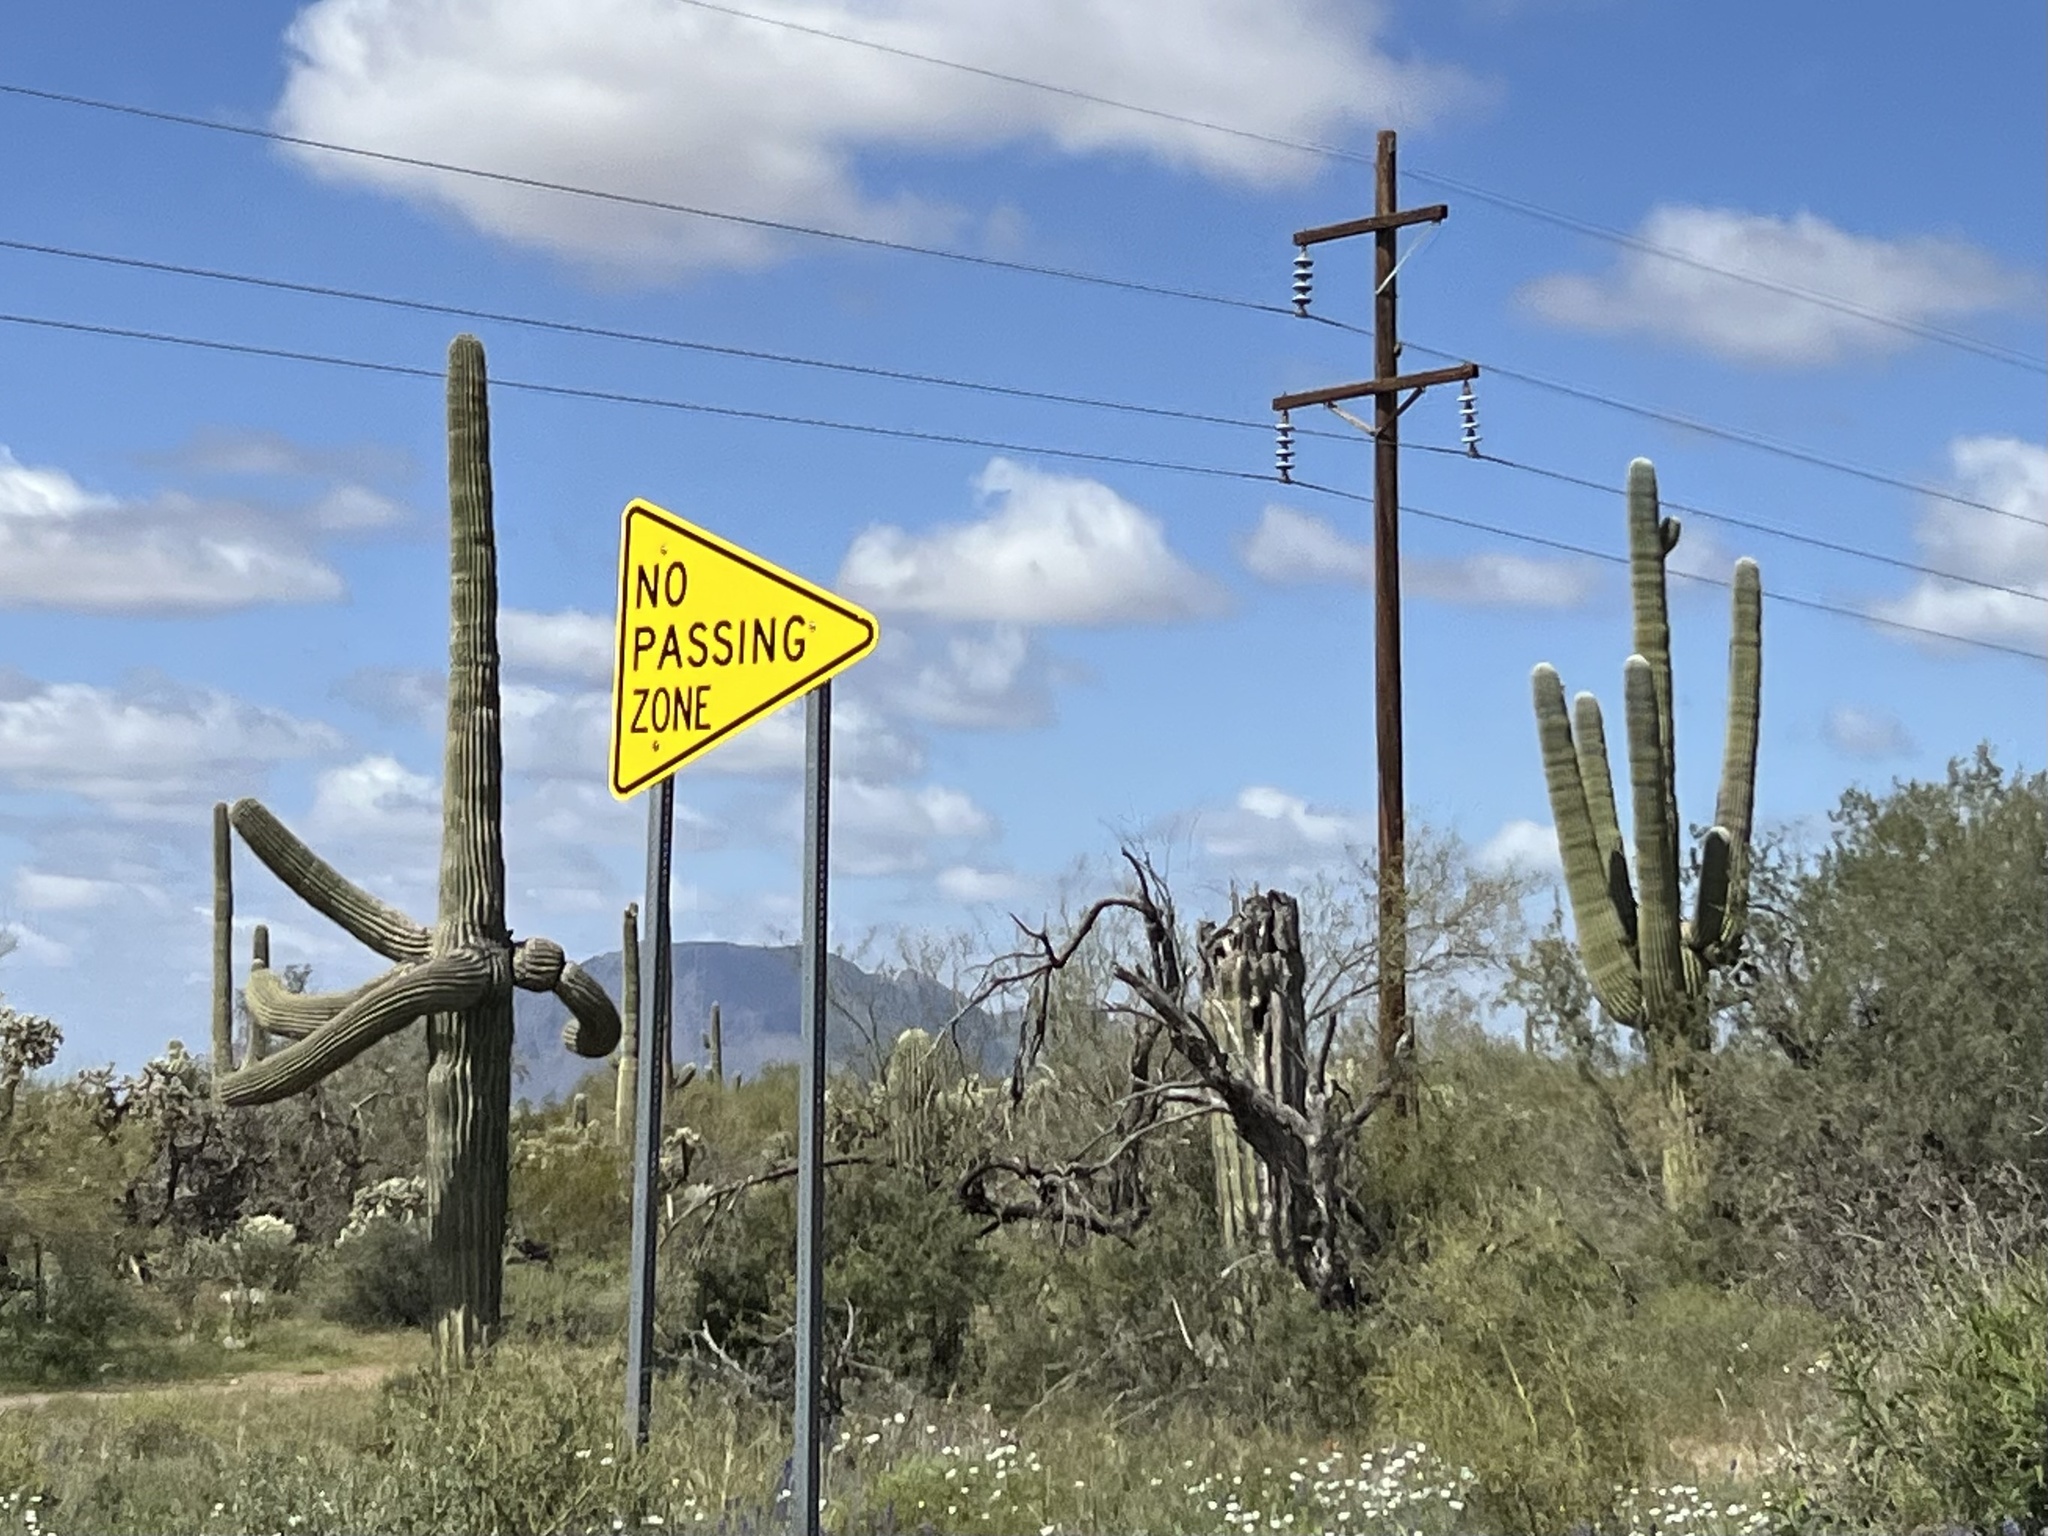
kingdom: Plantae
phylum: Tracheophyta
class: Magnoliopsida
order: Caryophyllales
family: Cactaceae
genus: Carnegiea
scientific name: Carnegiea gigantea
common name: Saguaro
